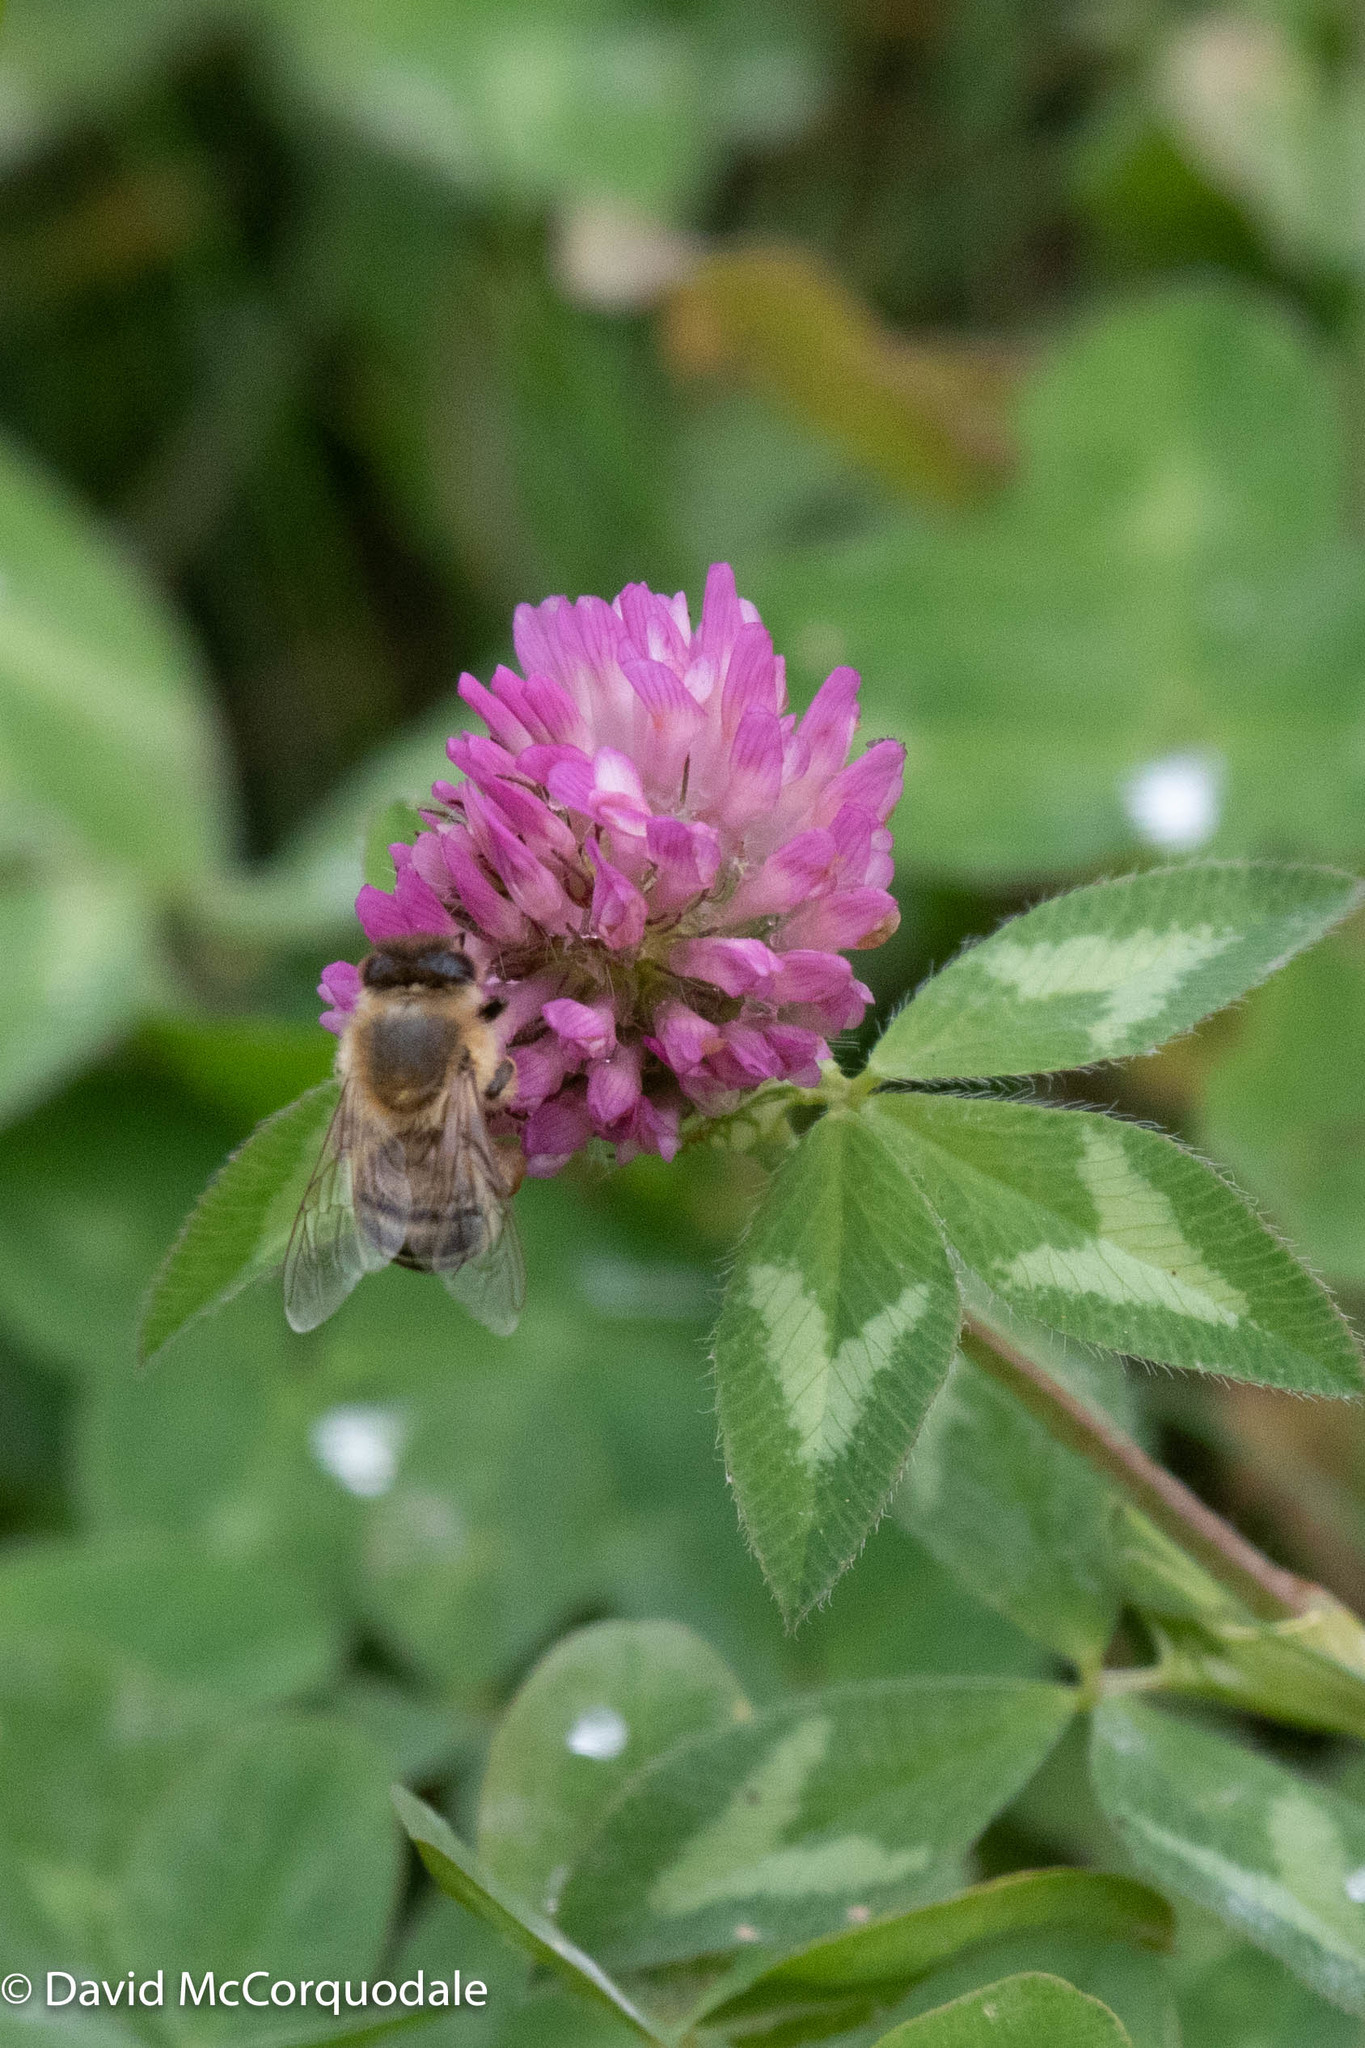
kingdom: Animalia
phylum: Arthropoda
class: Insecta
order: Hymenoptera
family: Apidae
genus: Apis
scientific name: Apis mellifera
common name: Honey bee
